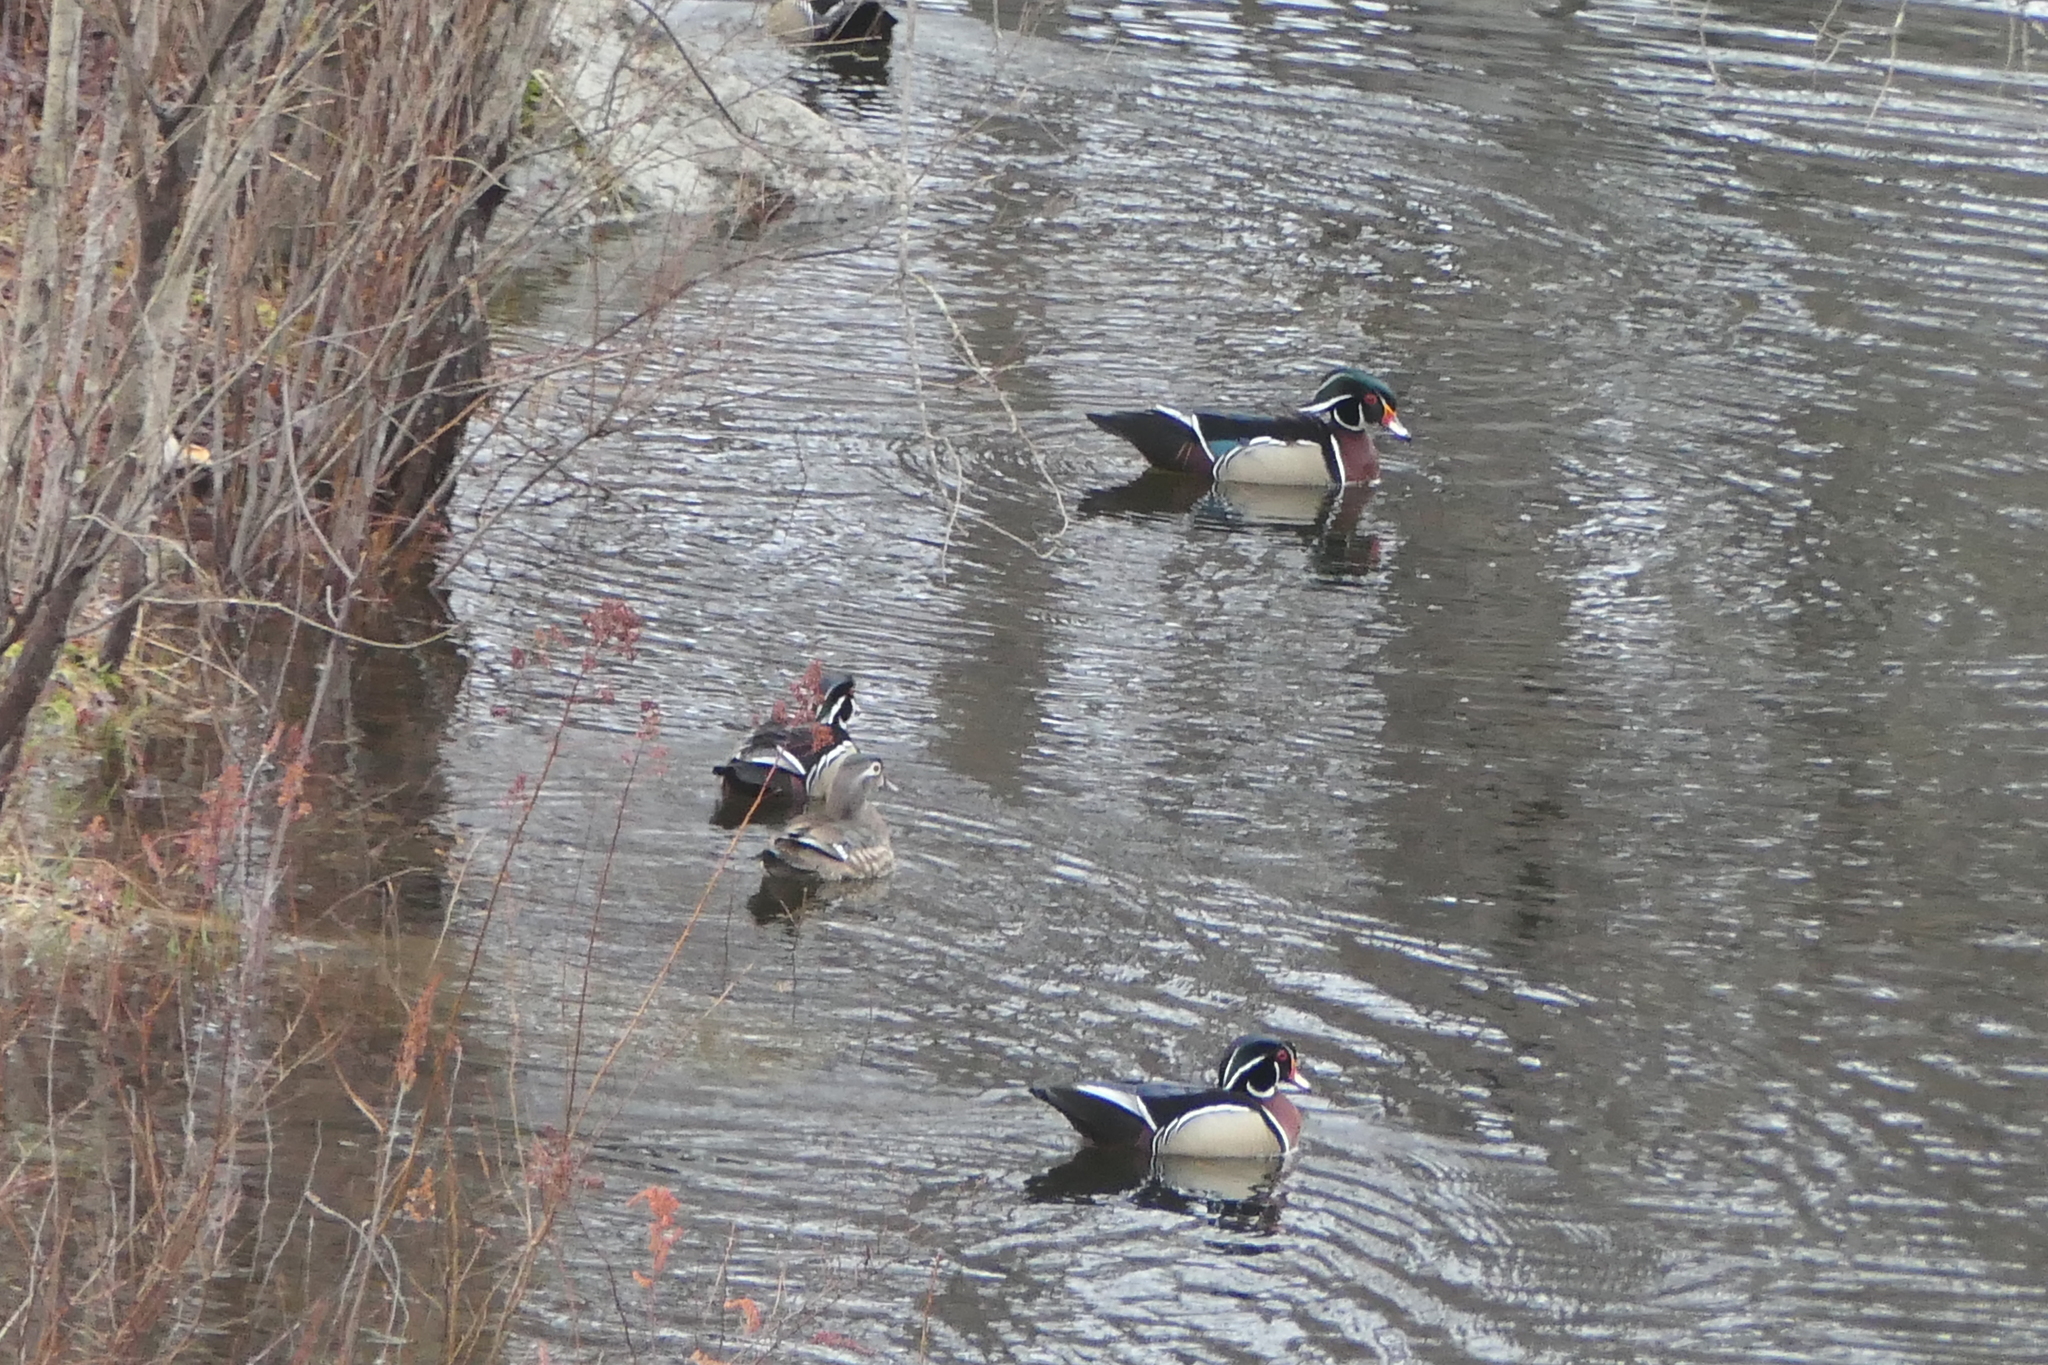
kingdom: Animalia
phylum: Chordata
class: Aves
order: Anseriformes
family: Anatidae
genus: Aix
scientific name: Aix sponsa
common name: Wood duck
